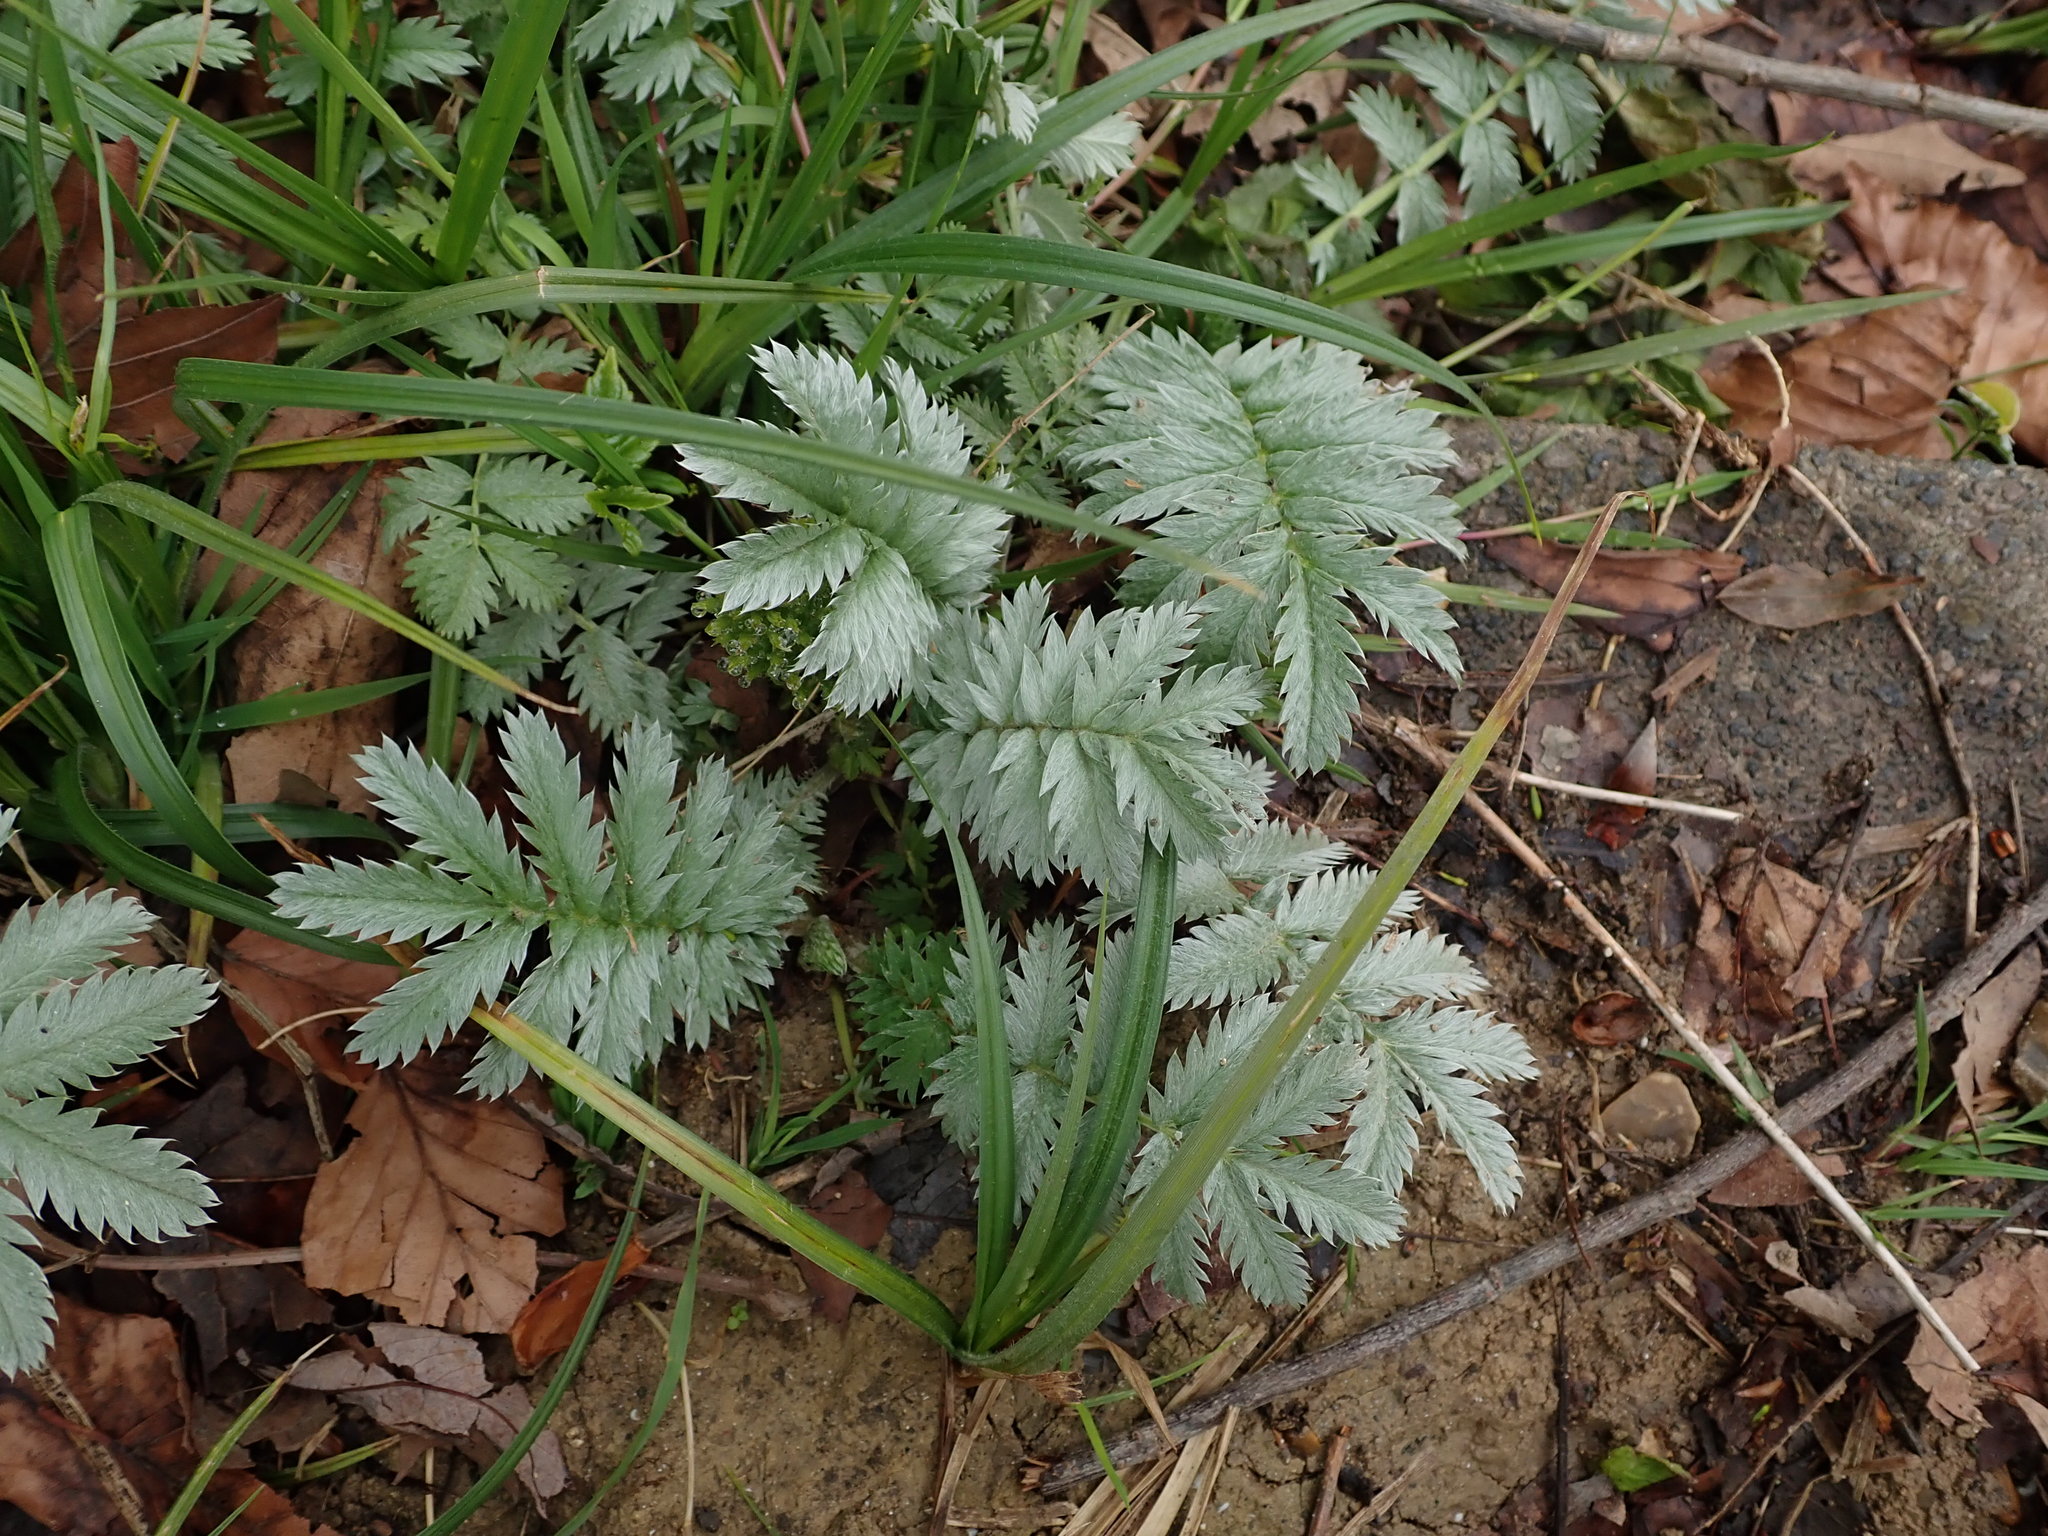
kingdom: Plantae
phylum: Tracheophyta
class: Magnoliopsida
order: Rosales
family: Rosaceae
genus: Argentina
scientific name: Argentina anserina
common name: Common silverweed
